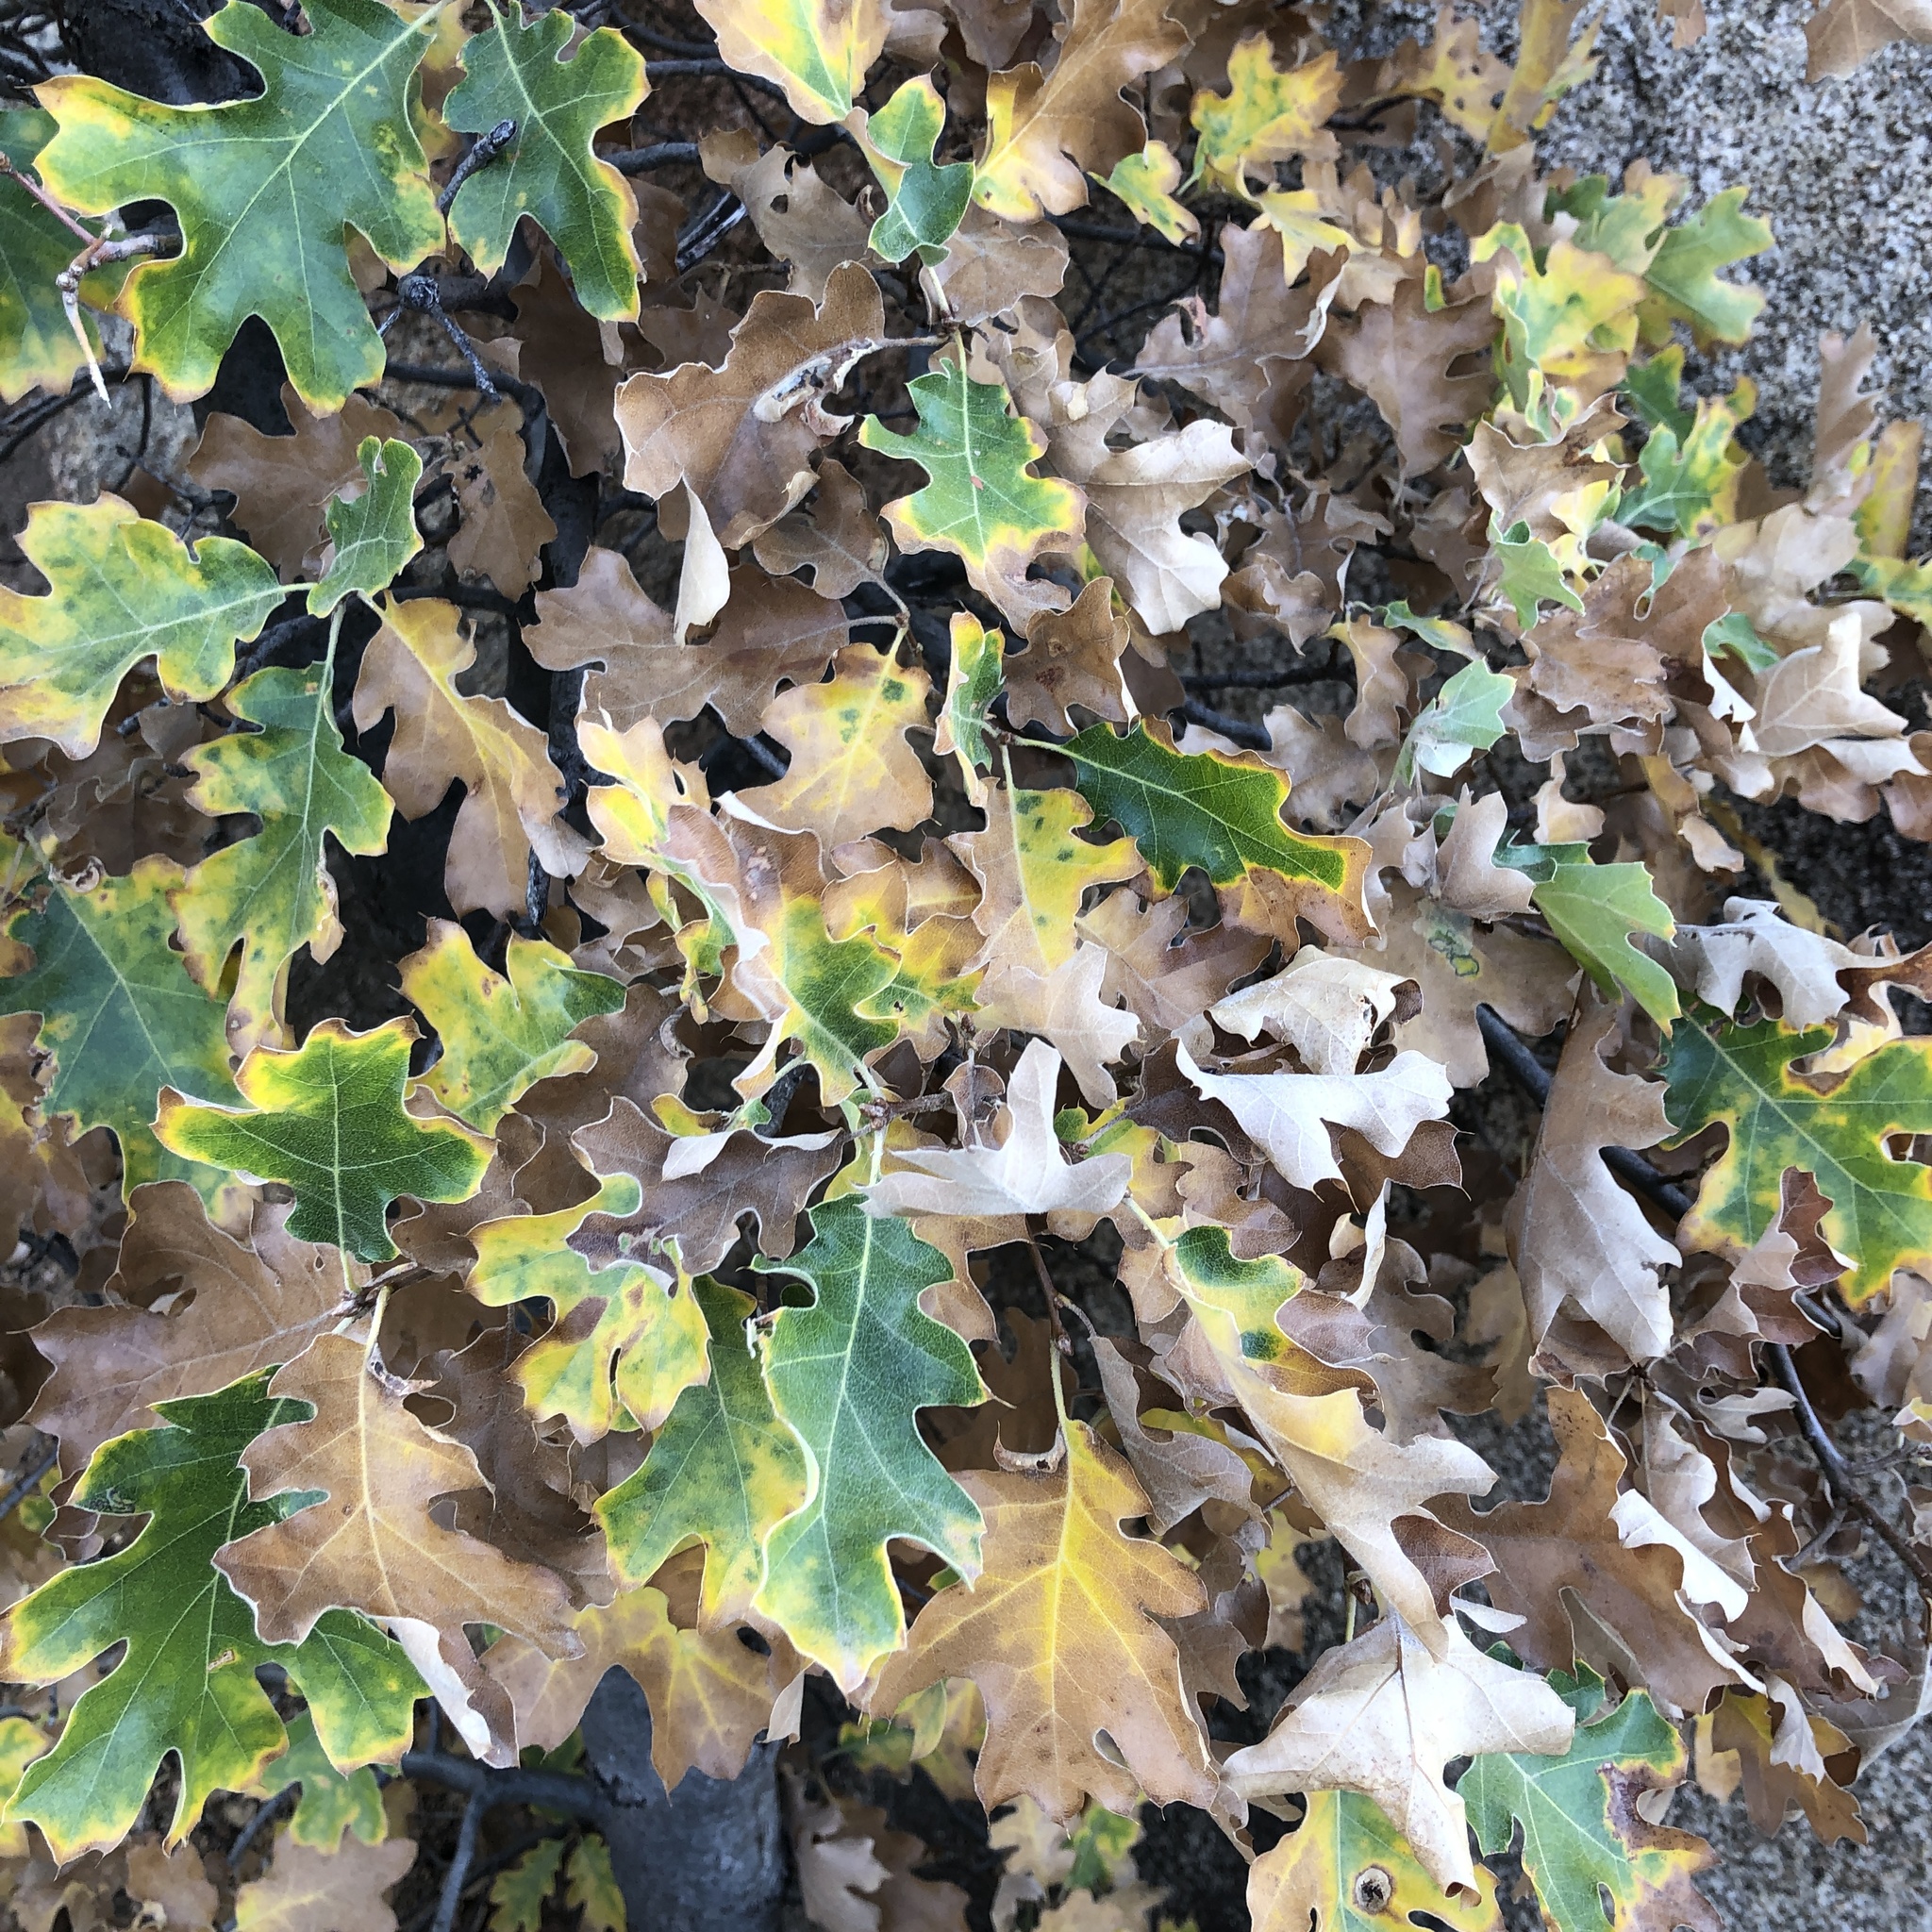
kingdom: Plantae
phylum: Tracheophyta
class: Magnoliopsida
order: Fagales
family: Fagaceae
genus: Quercus
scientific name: Quercus kelloggii
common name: California black oak
